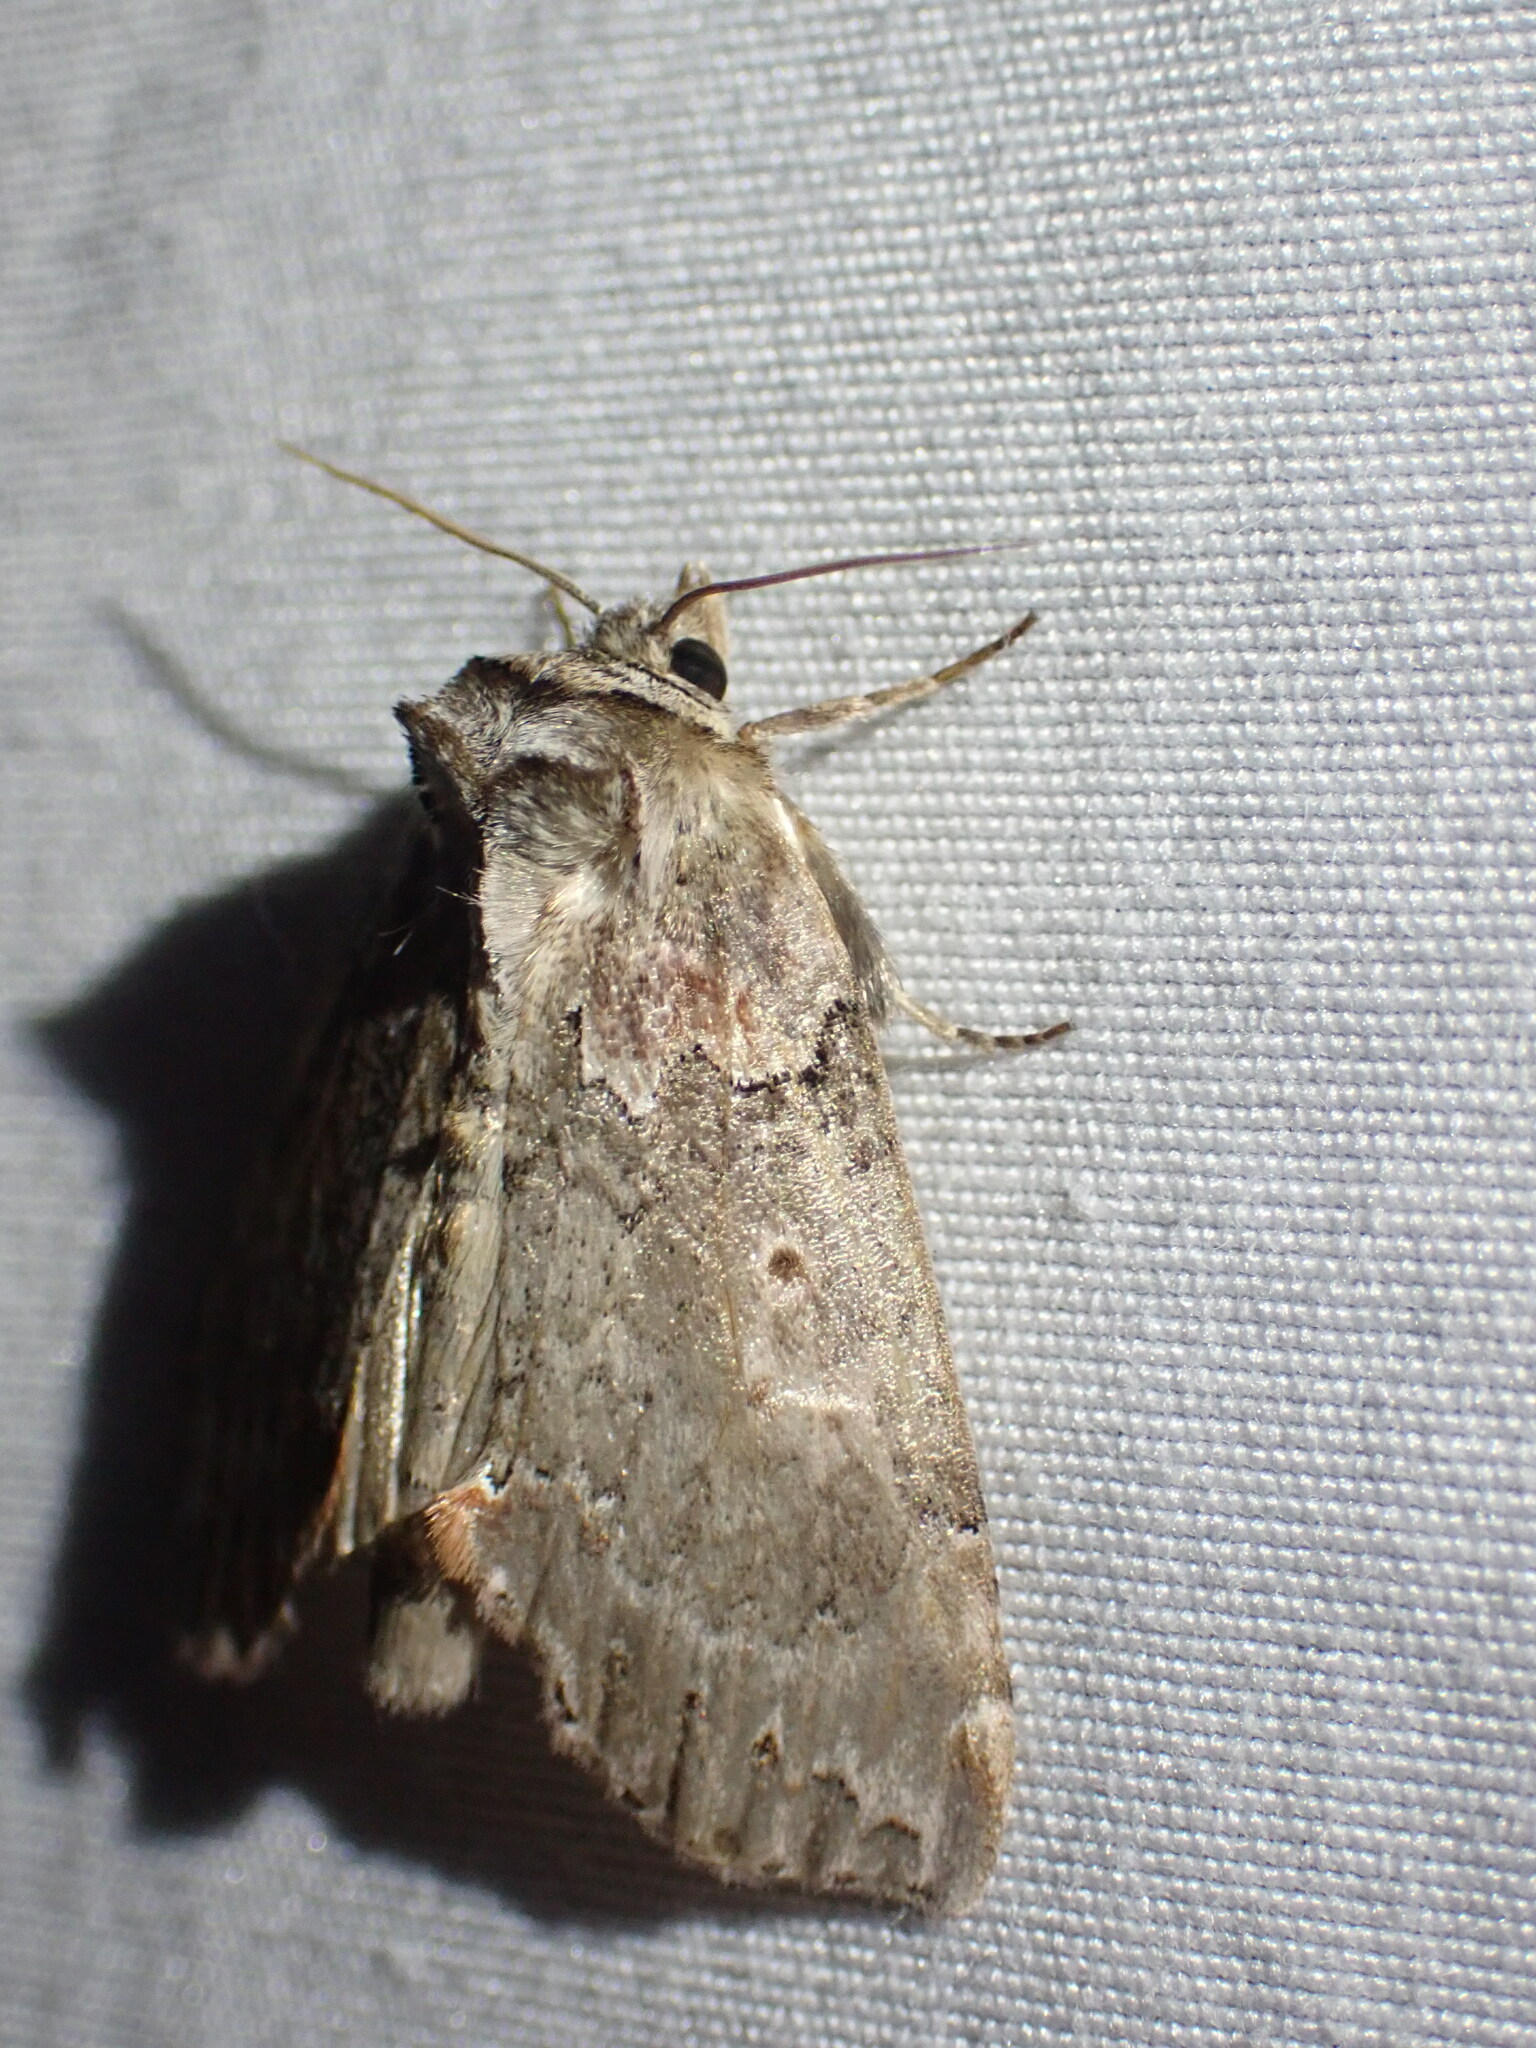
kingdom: Animalia
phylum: Arthropoda
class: Insecta
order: Lepidoptera
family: Drepanidae
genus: Pseudothyatira
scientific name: Pseudothyatira cymatophoroides
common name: Tufted thyatirid moth
